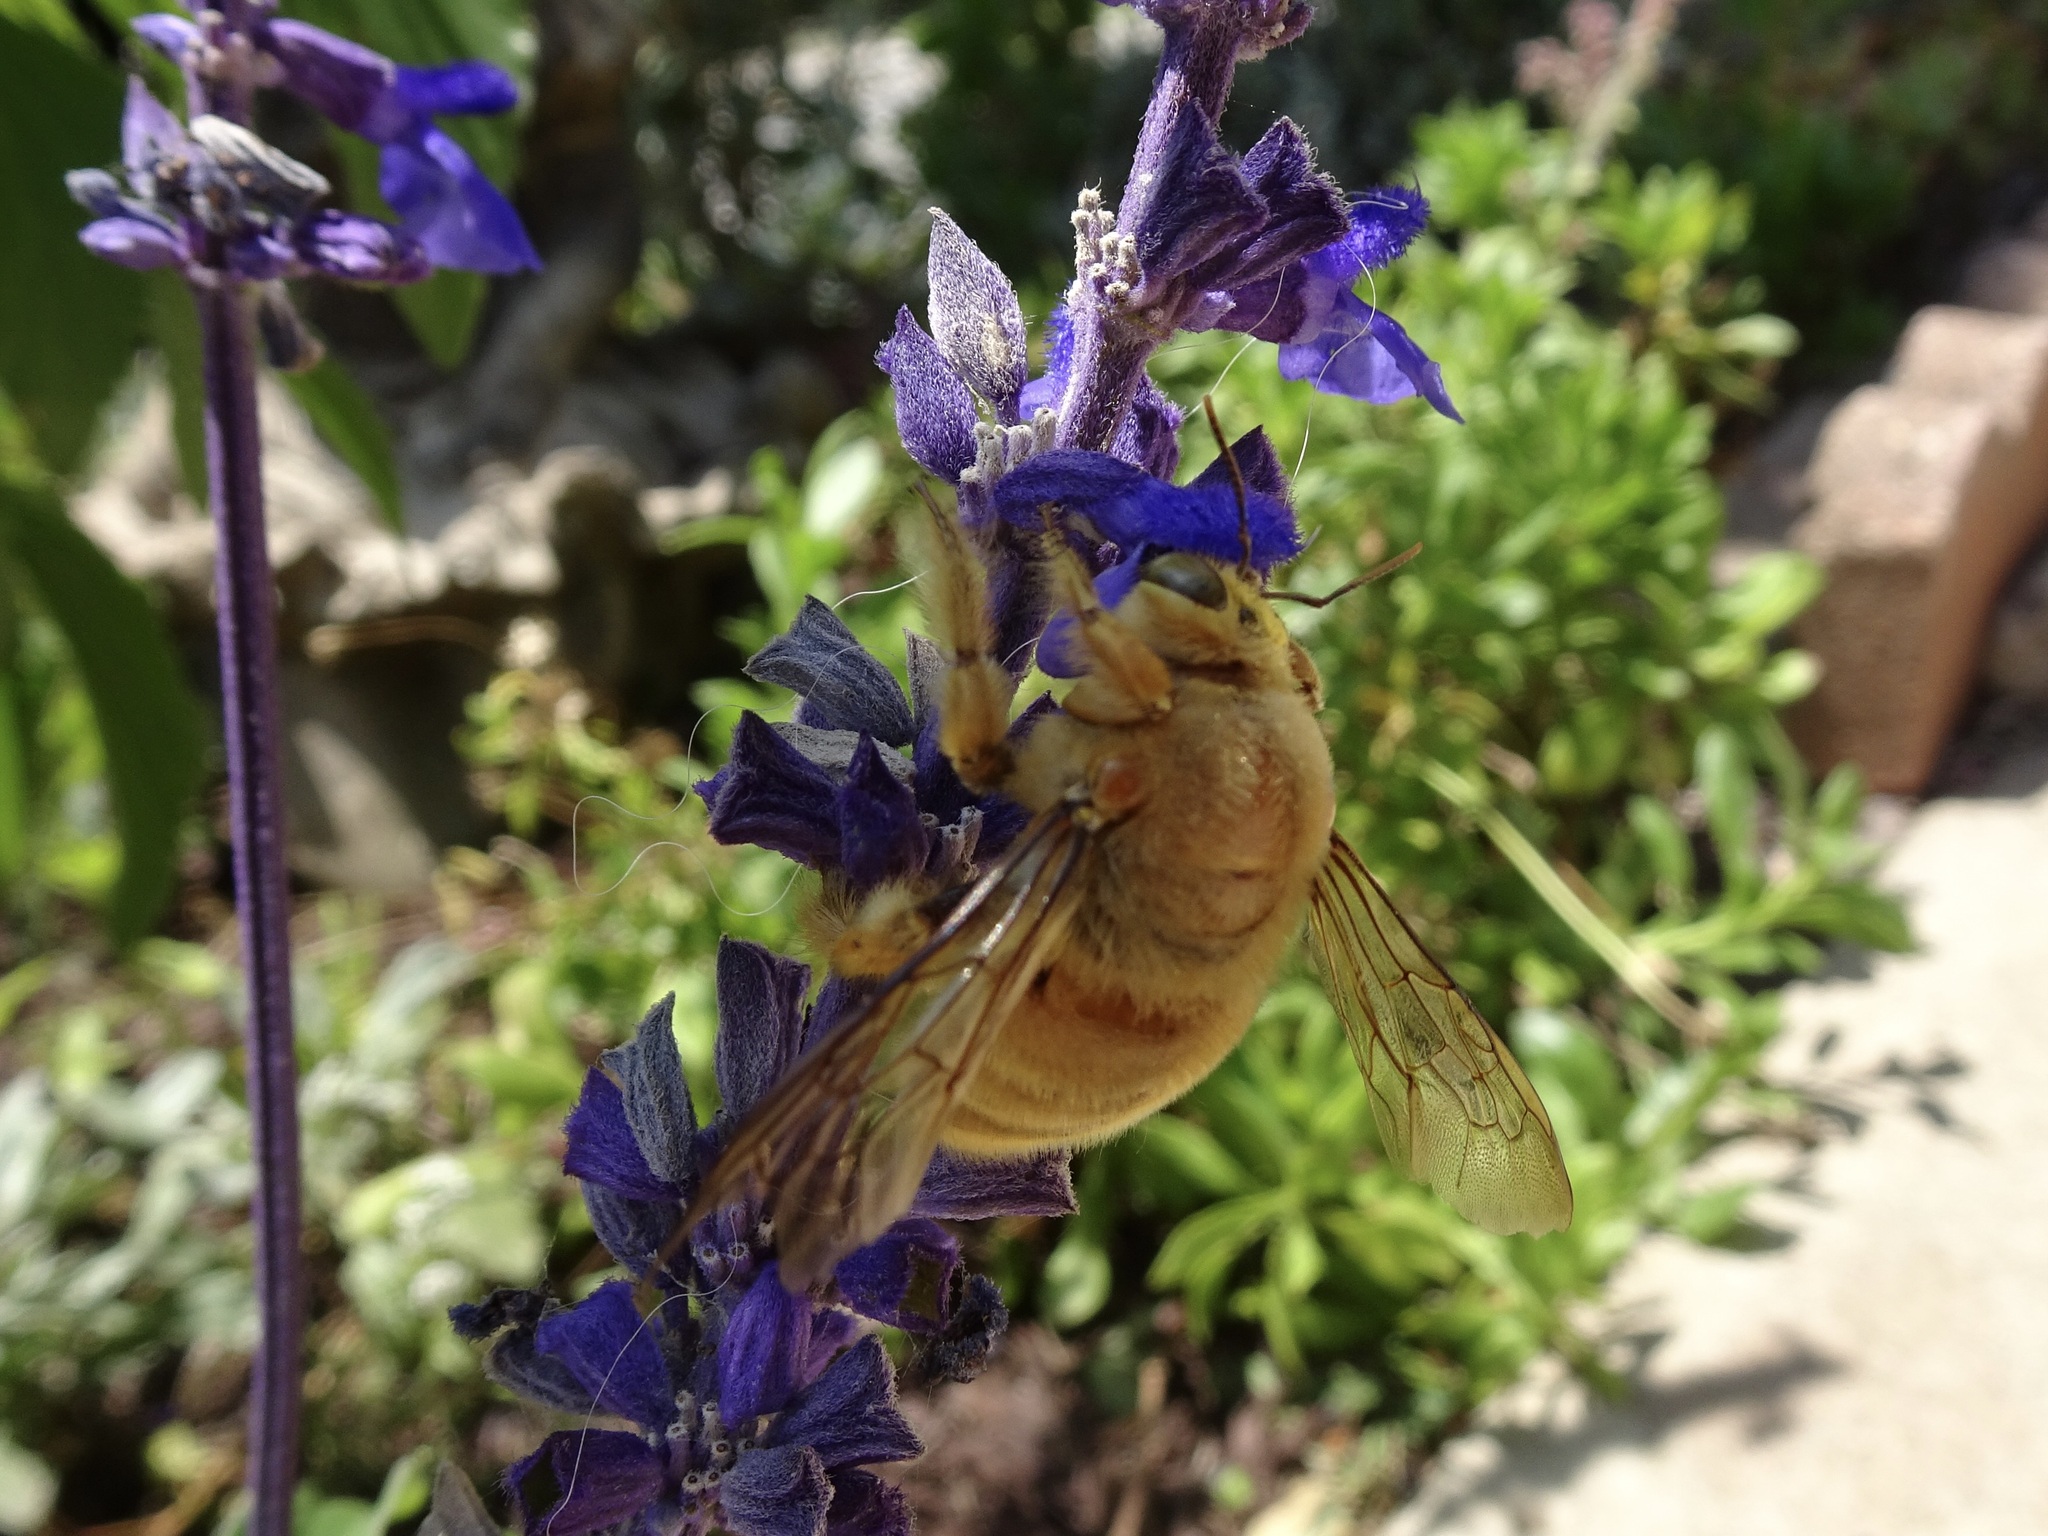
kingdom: Animalia
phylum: Arthropoda
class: Insecta
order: Hymenoptera
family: Apidae
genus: Xylocopa
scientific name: Xylocopa sonorina
